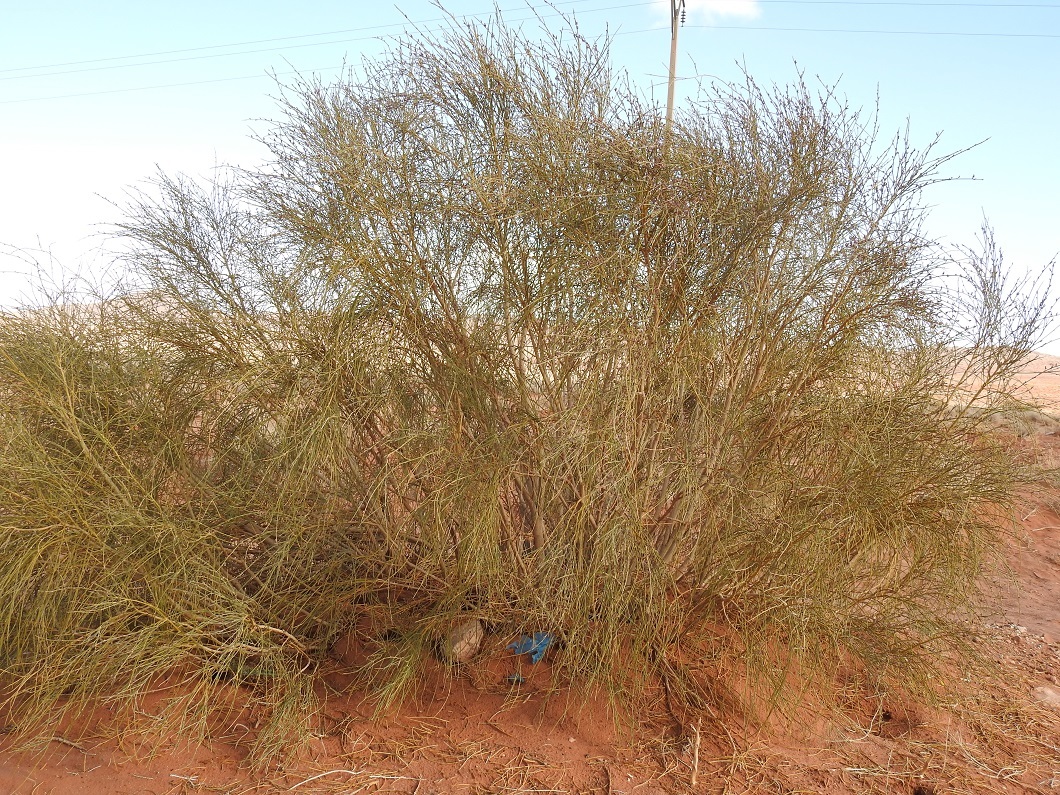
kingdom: Plantae
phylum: Tracheophyta
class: Magnoliopsida
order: Fabales
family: Fabaceae
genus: Retama
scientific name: Retama raetam
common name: Retem
